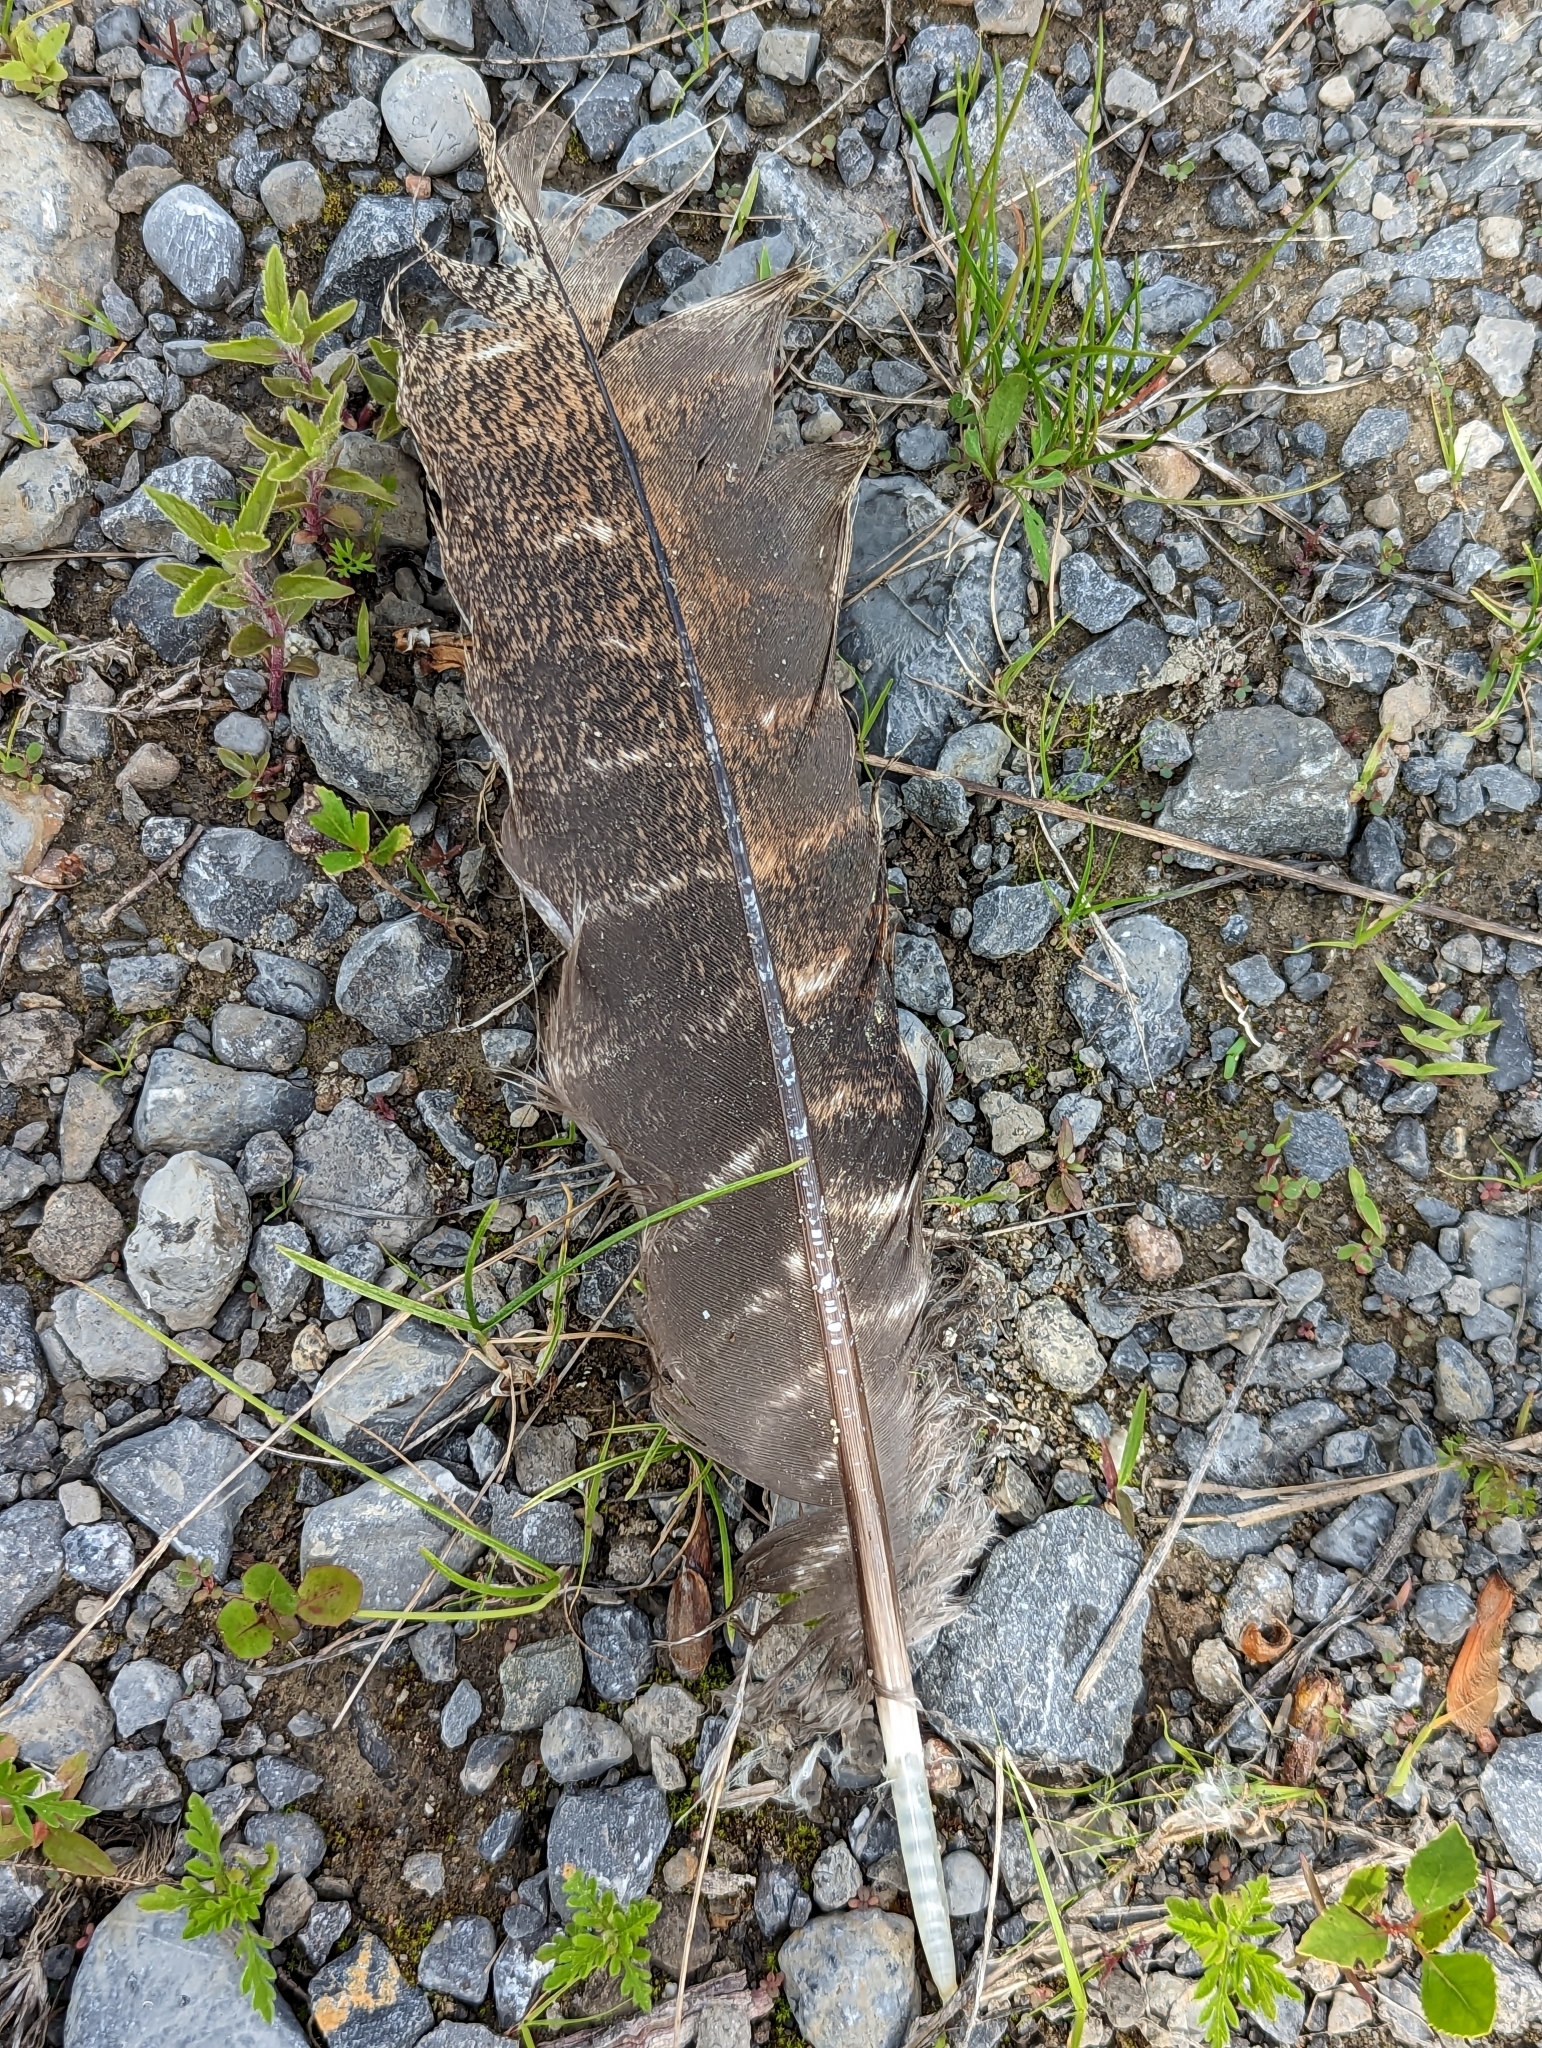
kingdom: Animalia
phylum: Chordata
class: Aves
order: Galliformes
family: Phasianidae
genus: Meleagris
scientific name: Meleagris gallopavo
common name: Wild turkey
